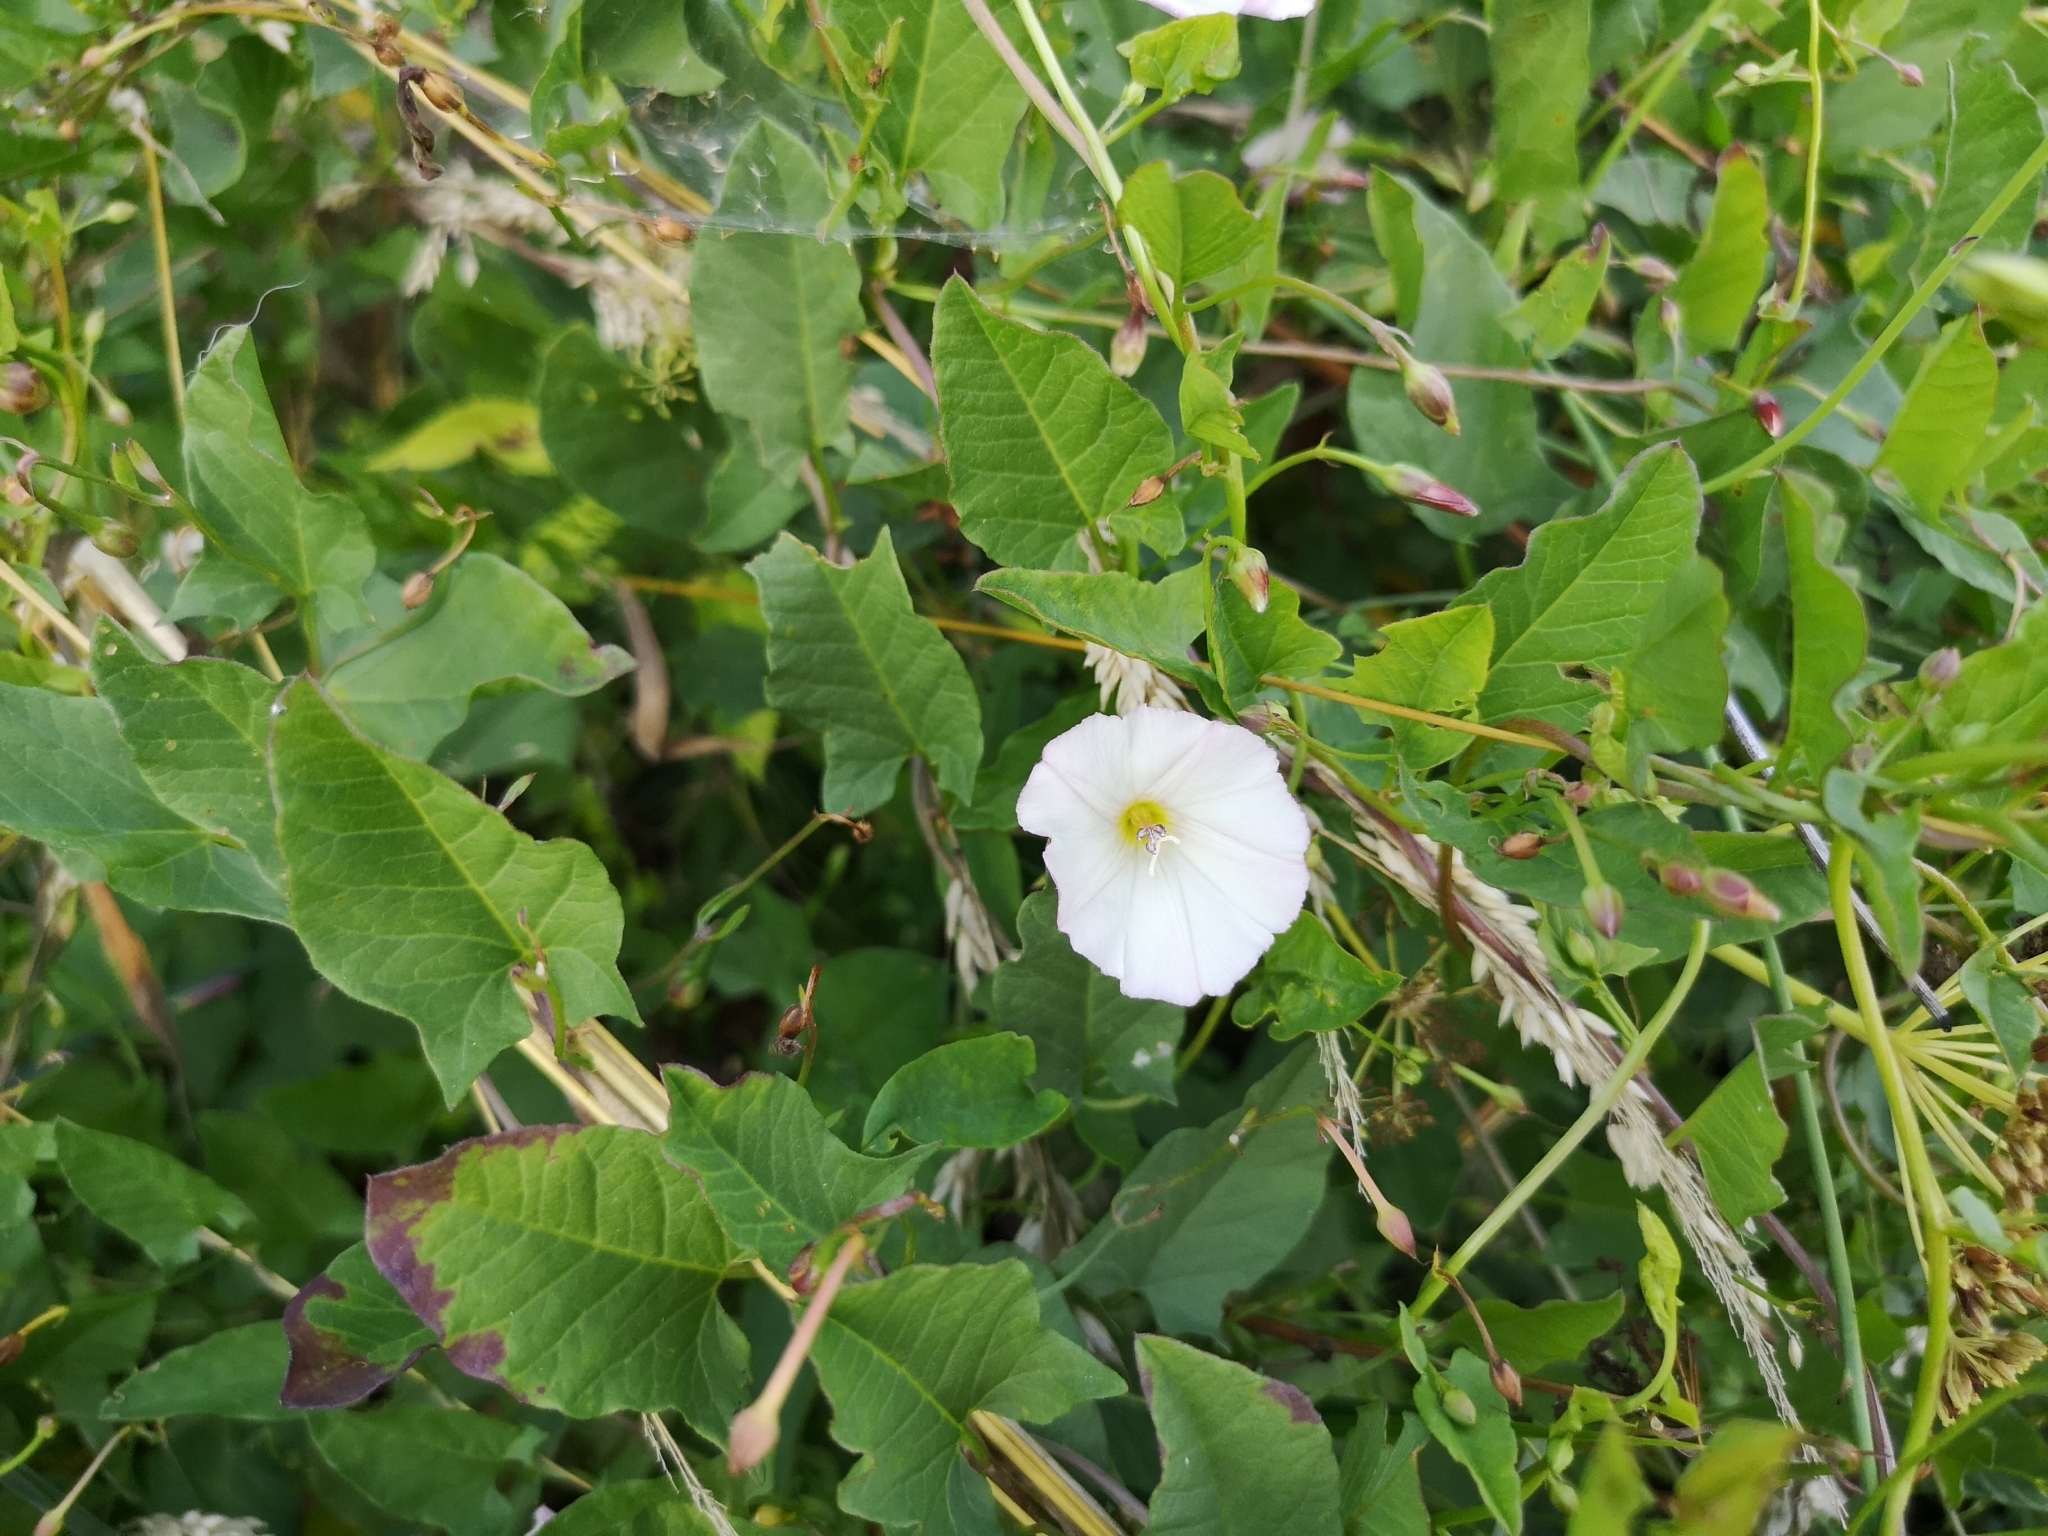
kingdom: Plantae
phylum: Tracheophyta
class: Magnoliopsida
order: Solanales
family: Convolvulaceae
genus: Convolvulus
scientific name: Convolvulus arvensis
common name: Field bindweed
